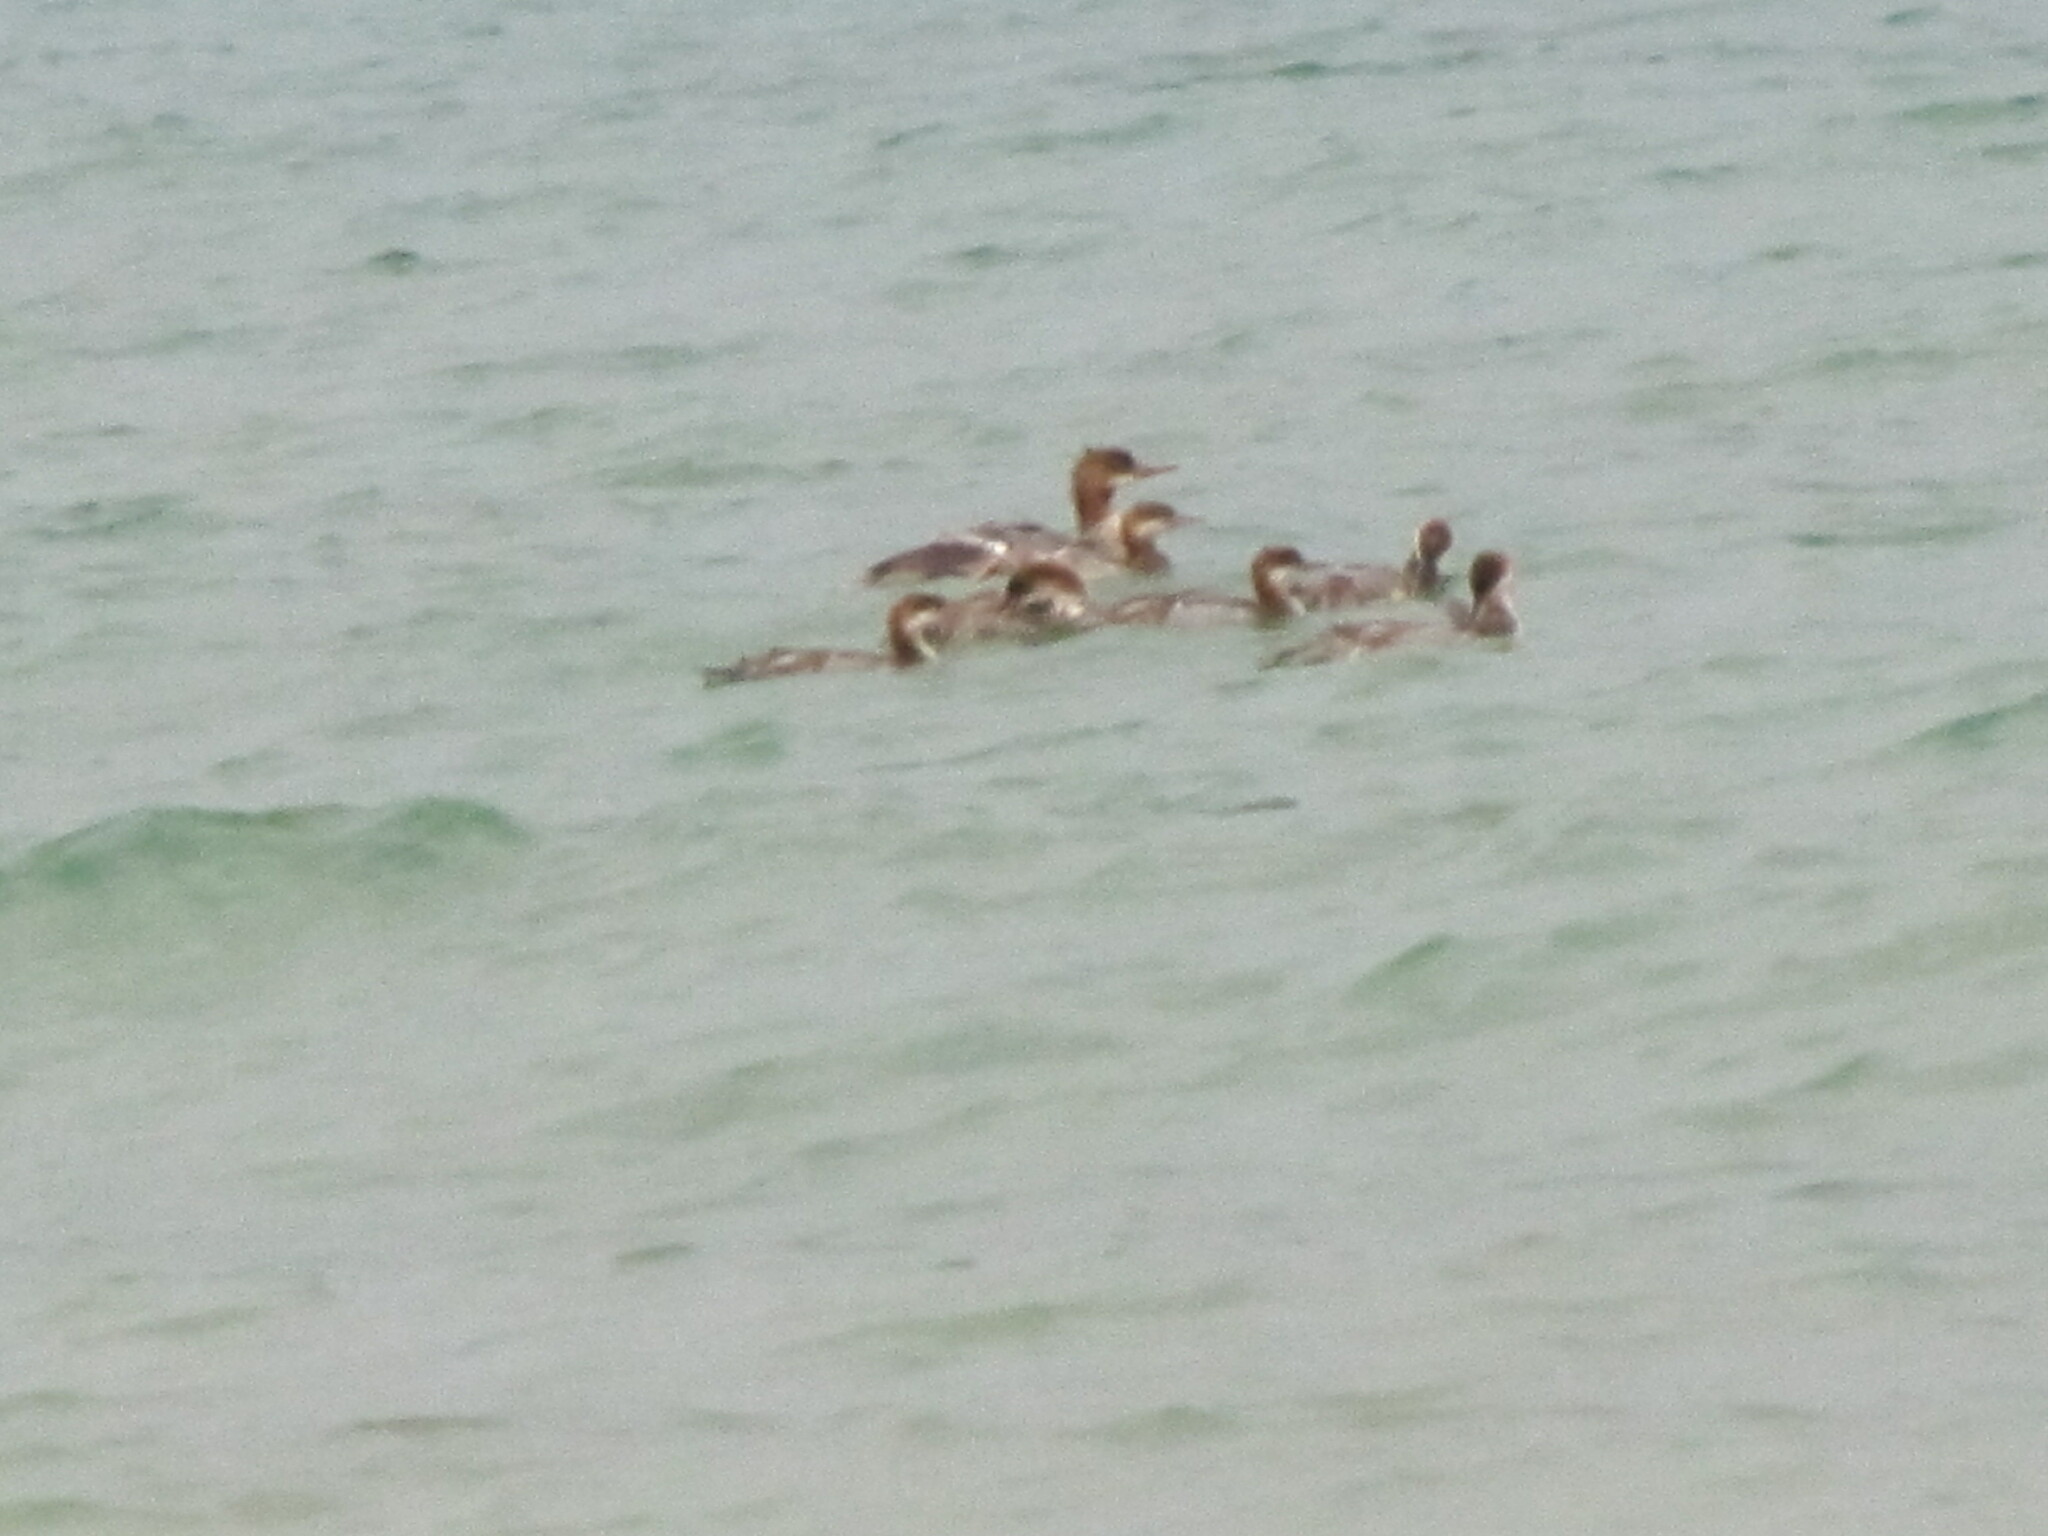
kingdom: Animalia
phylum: Chordata
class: Aves
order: Anseriformes
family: Anatidae
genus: Mergus
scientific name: Mergus merganser
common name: Common merganser
